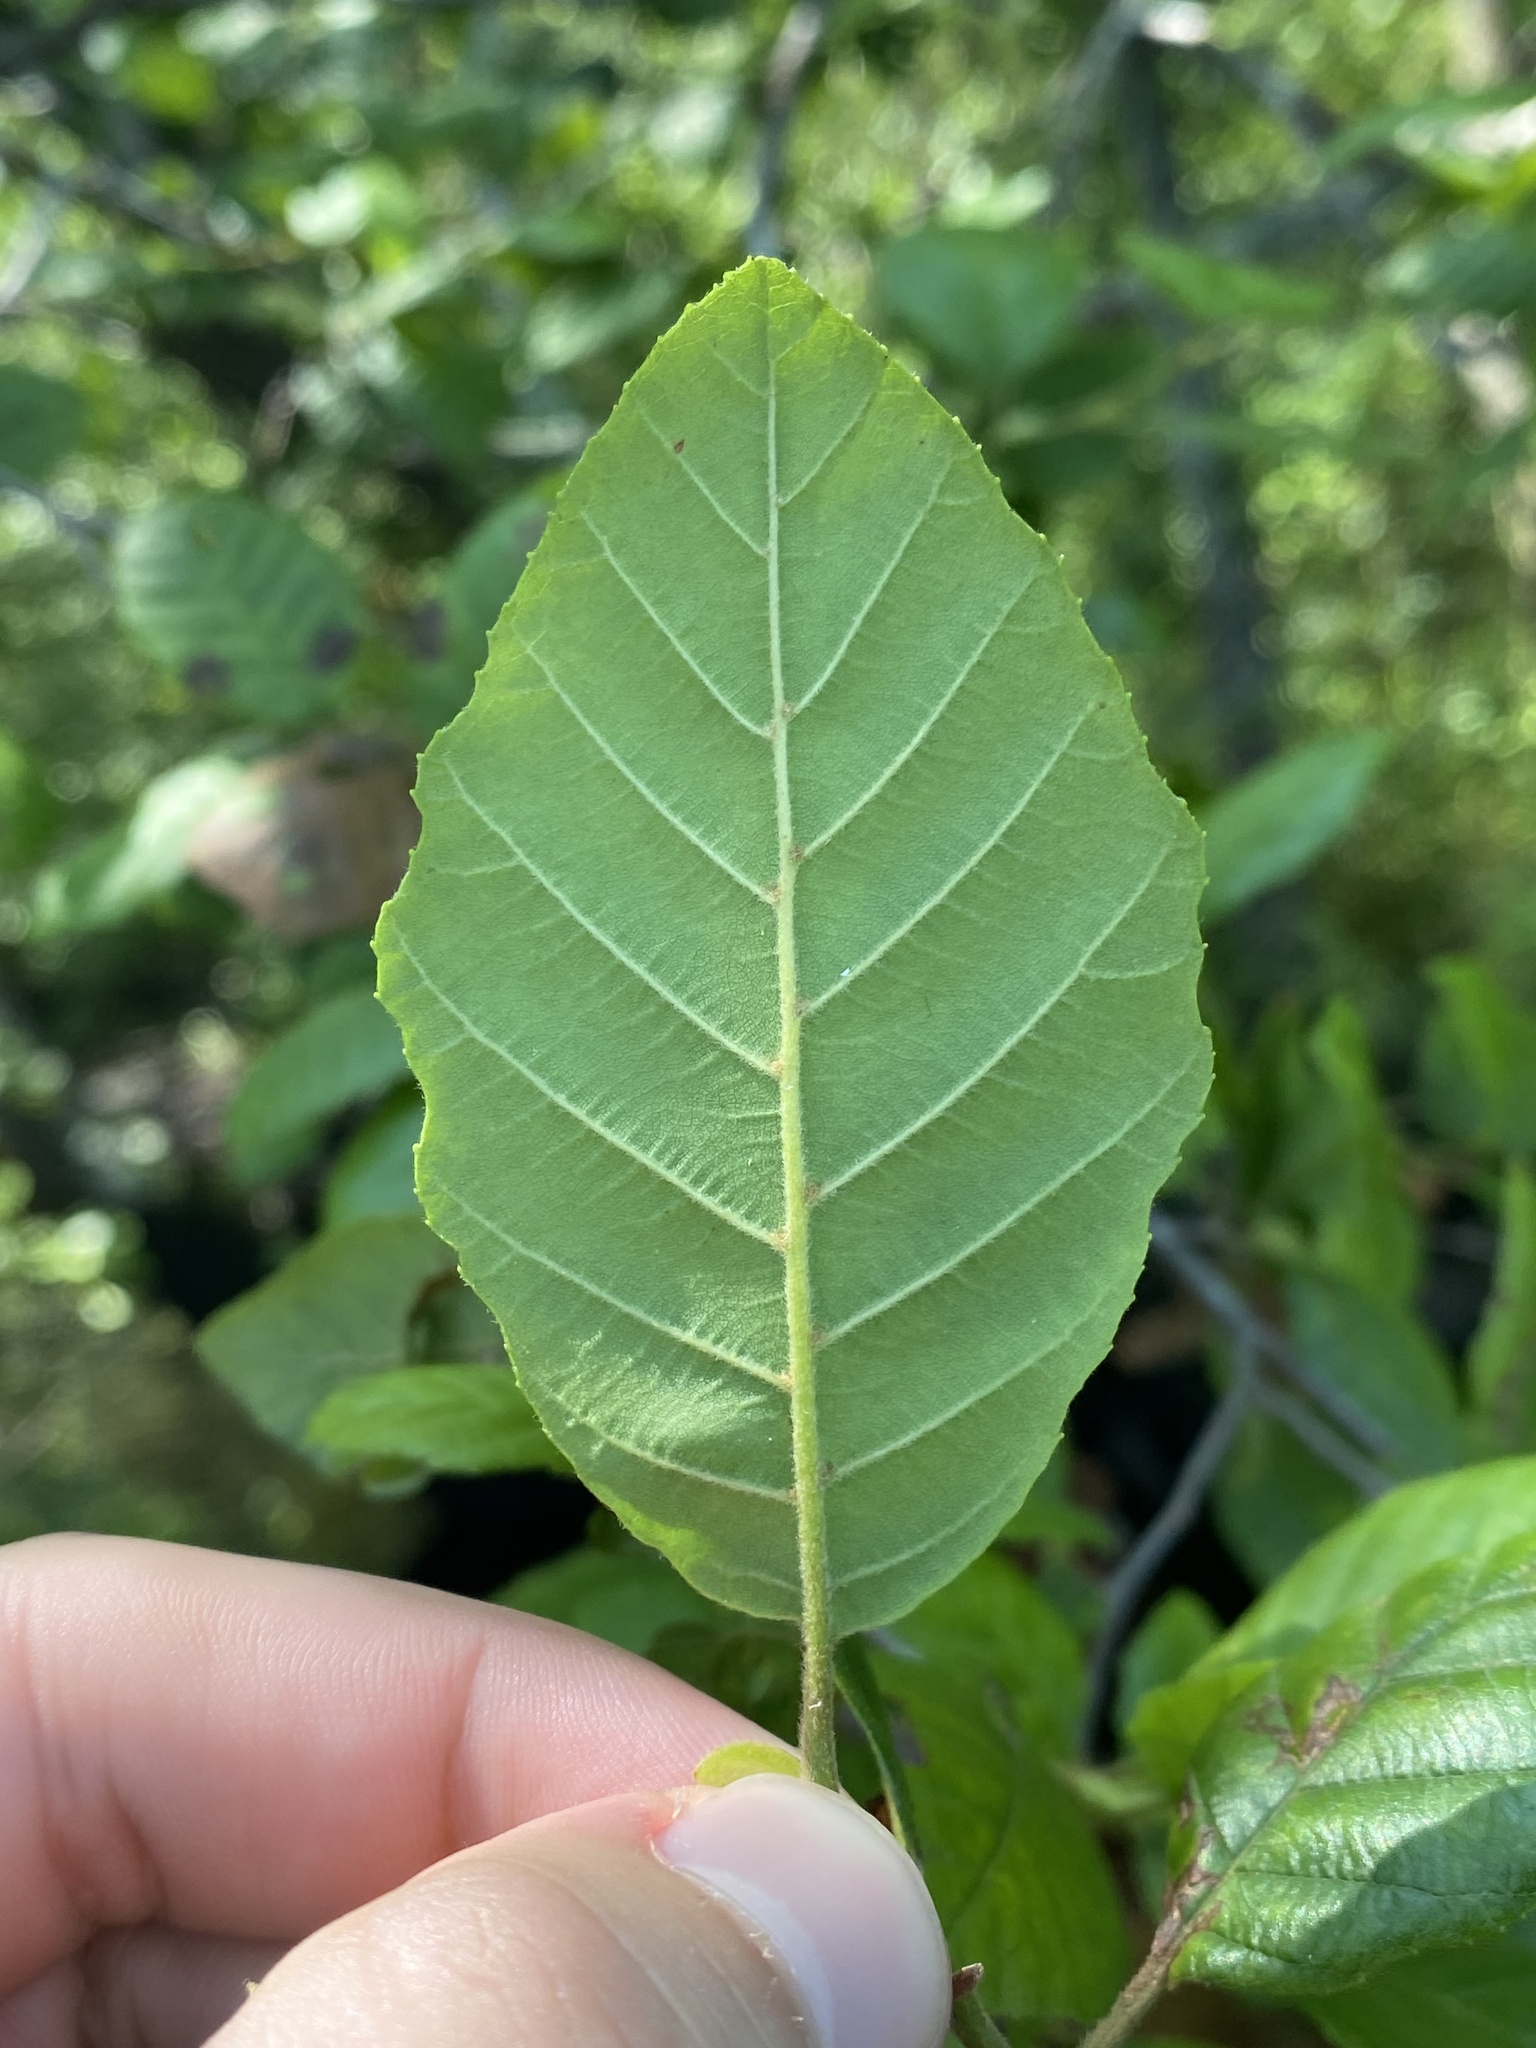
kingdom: Plantae
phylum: Tracheophyta
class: Magnoliopsida
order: Fagales
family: Betulaceae
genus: Alnus
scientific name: Alnus serrulata
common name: Hazel alder
